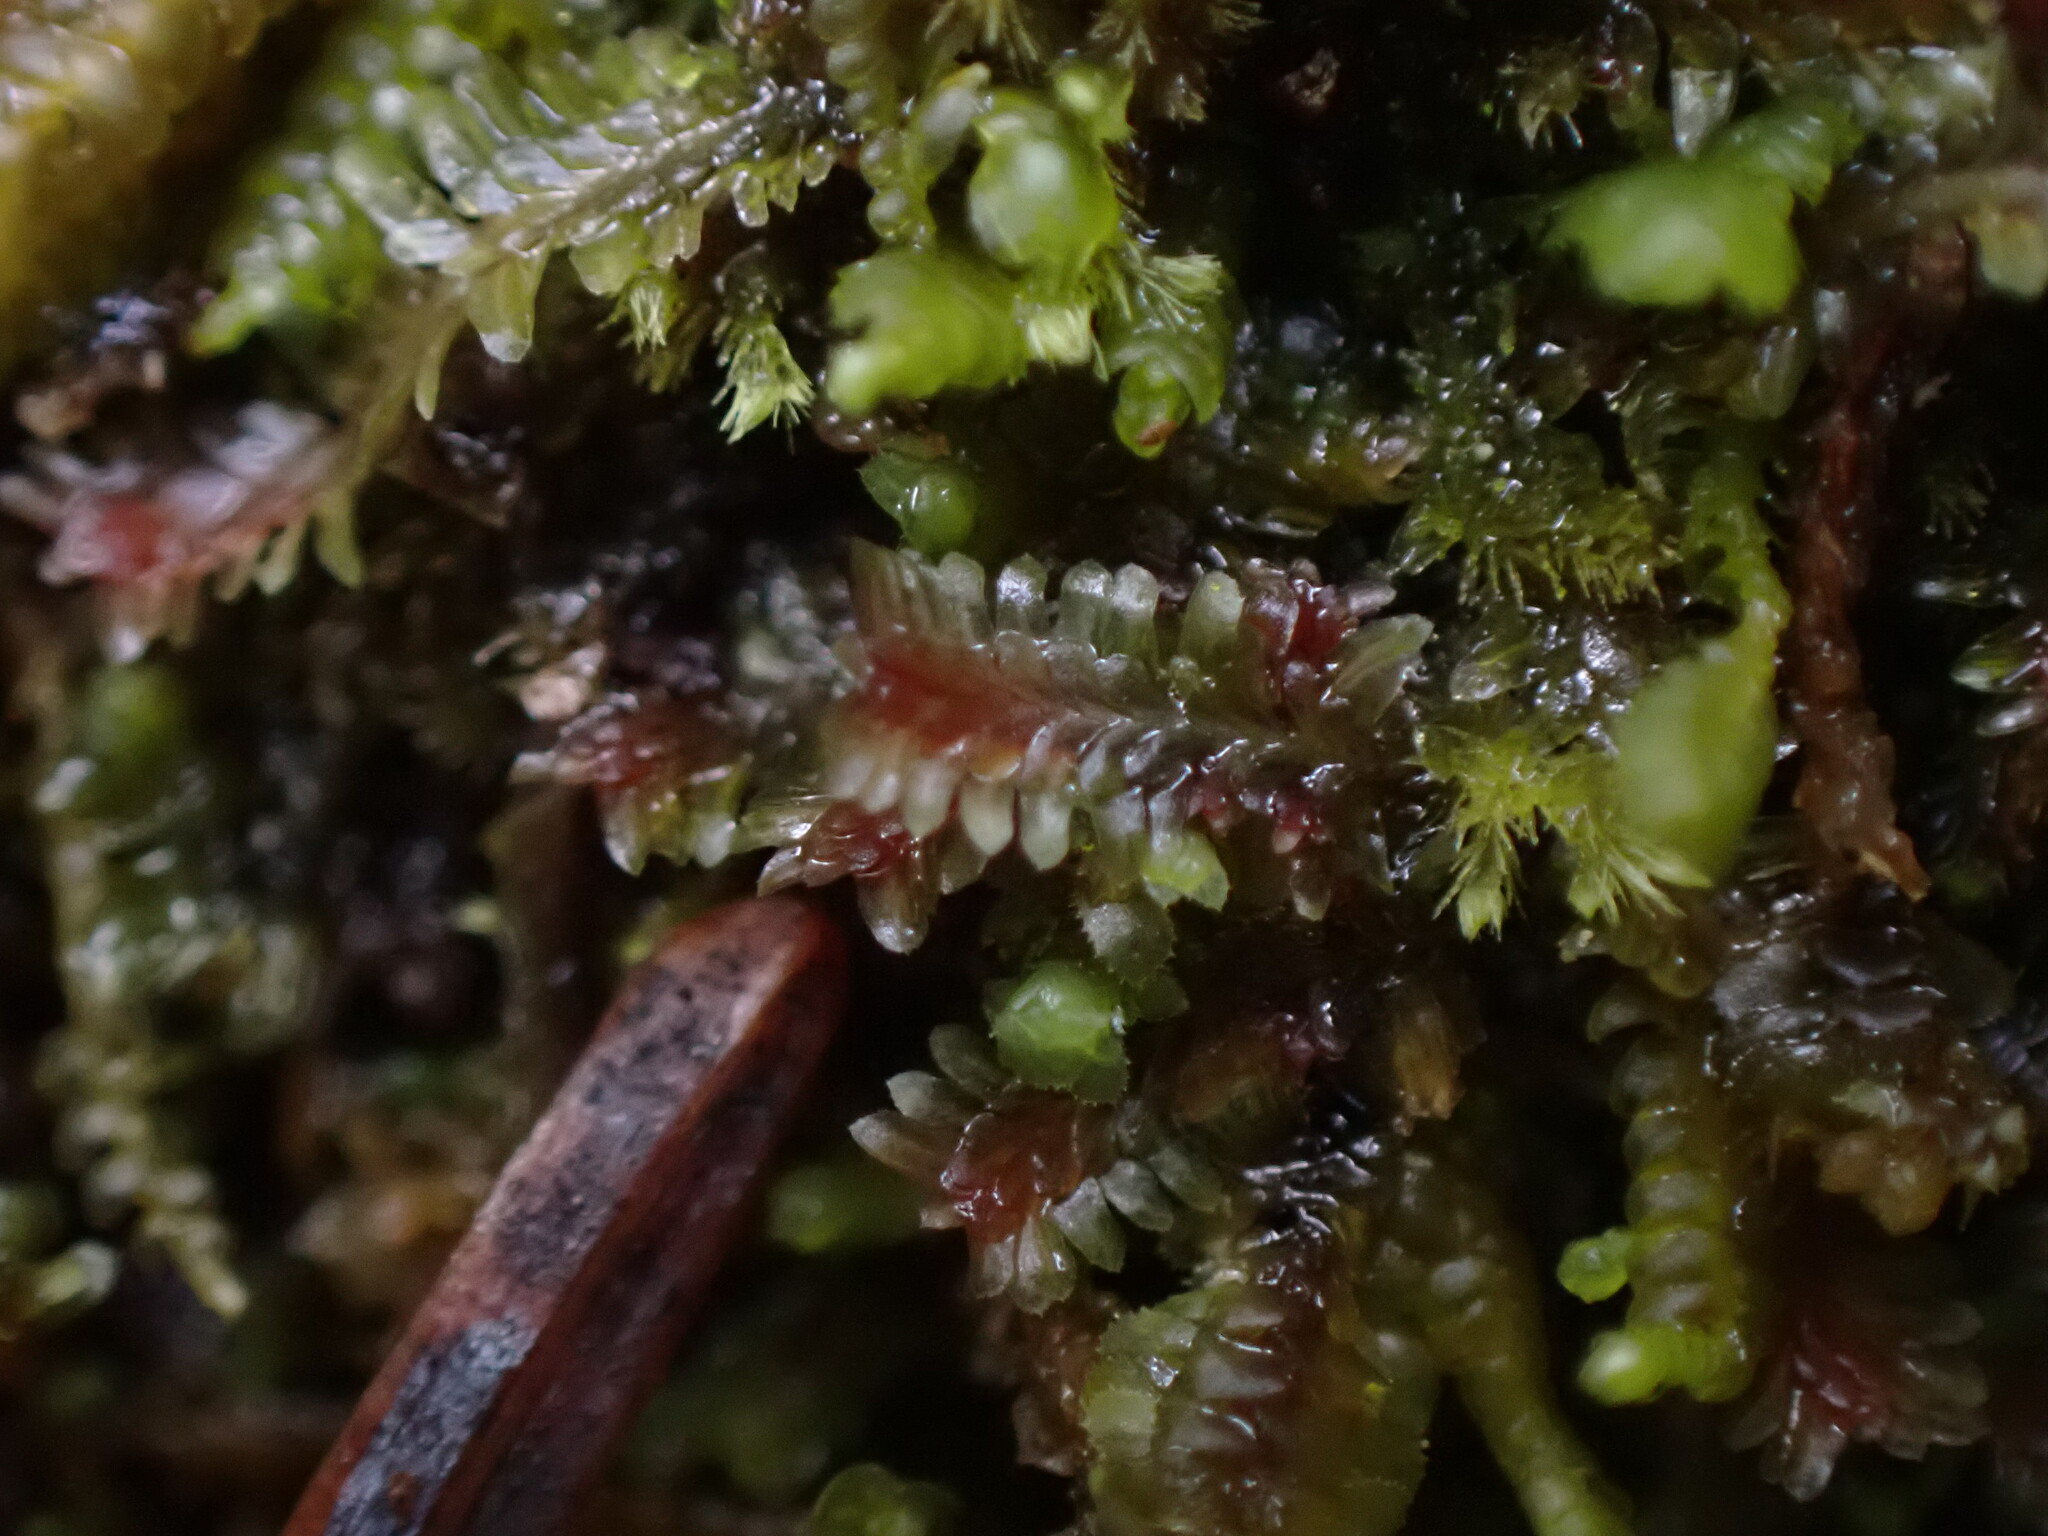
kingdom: Plantae
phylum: Marchantiophyta
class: Jungermanniopsida
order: Jungermanniales
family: Scapaniaceae
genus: Diplophyllum
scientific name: Diplophyllum albicans
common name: White earwort
